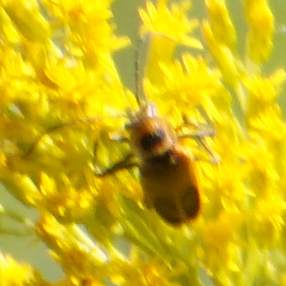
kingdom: Animalia
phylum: Arthropoda
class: Insecta
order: Coleoptera
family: Cantharidae
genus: Chauliognathus
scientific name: Chauliognathus pensylvanicus
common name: Goldenrod soldier beetle
